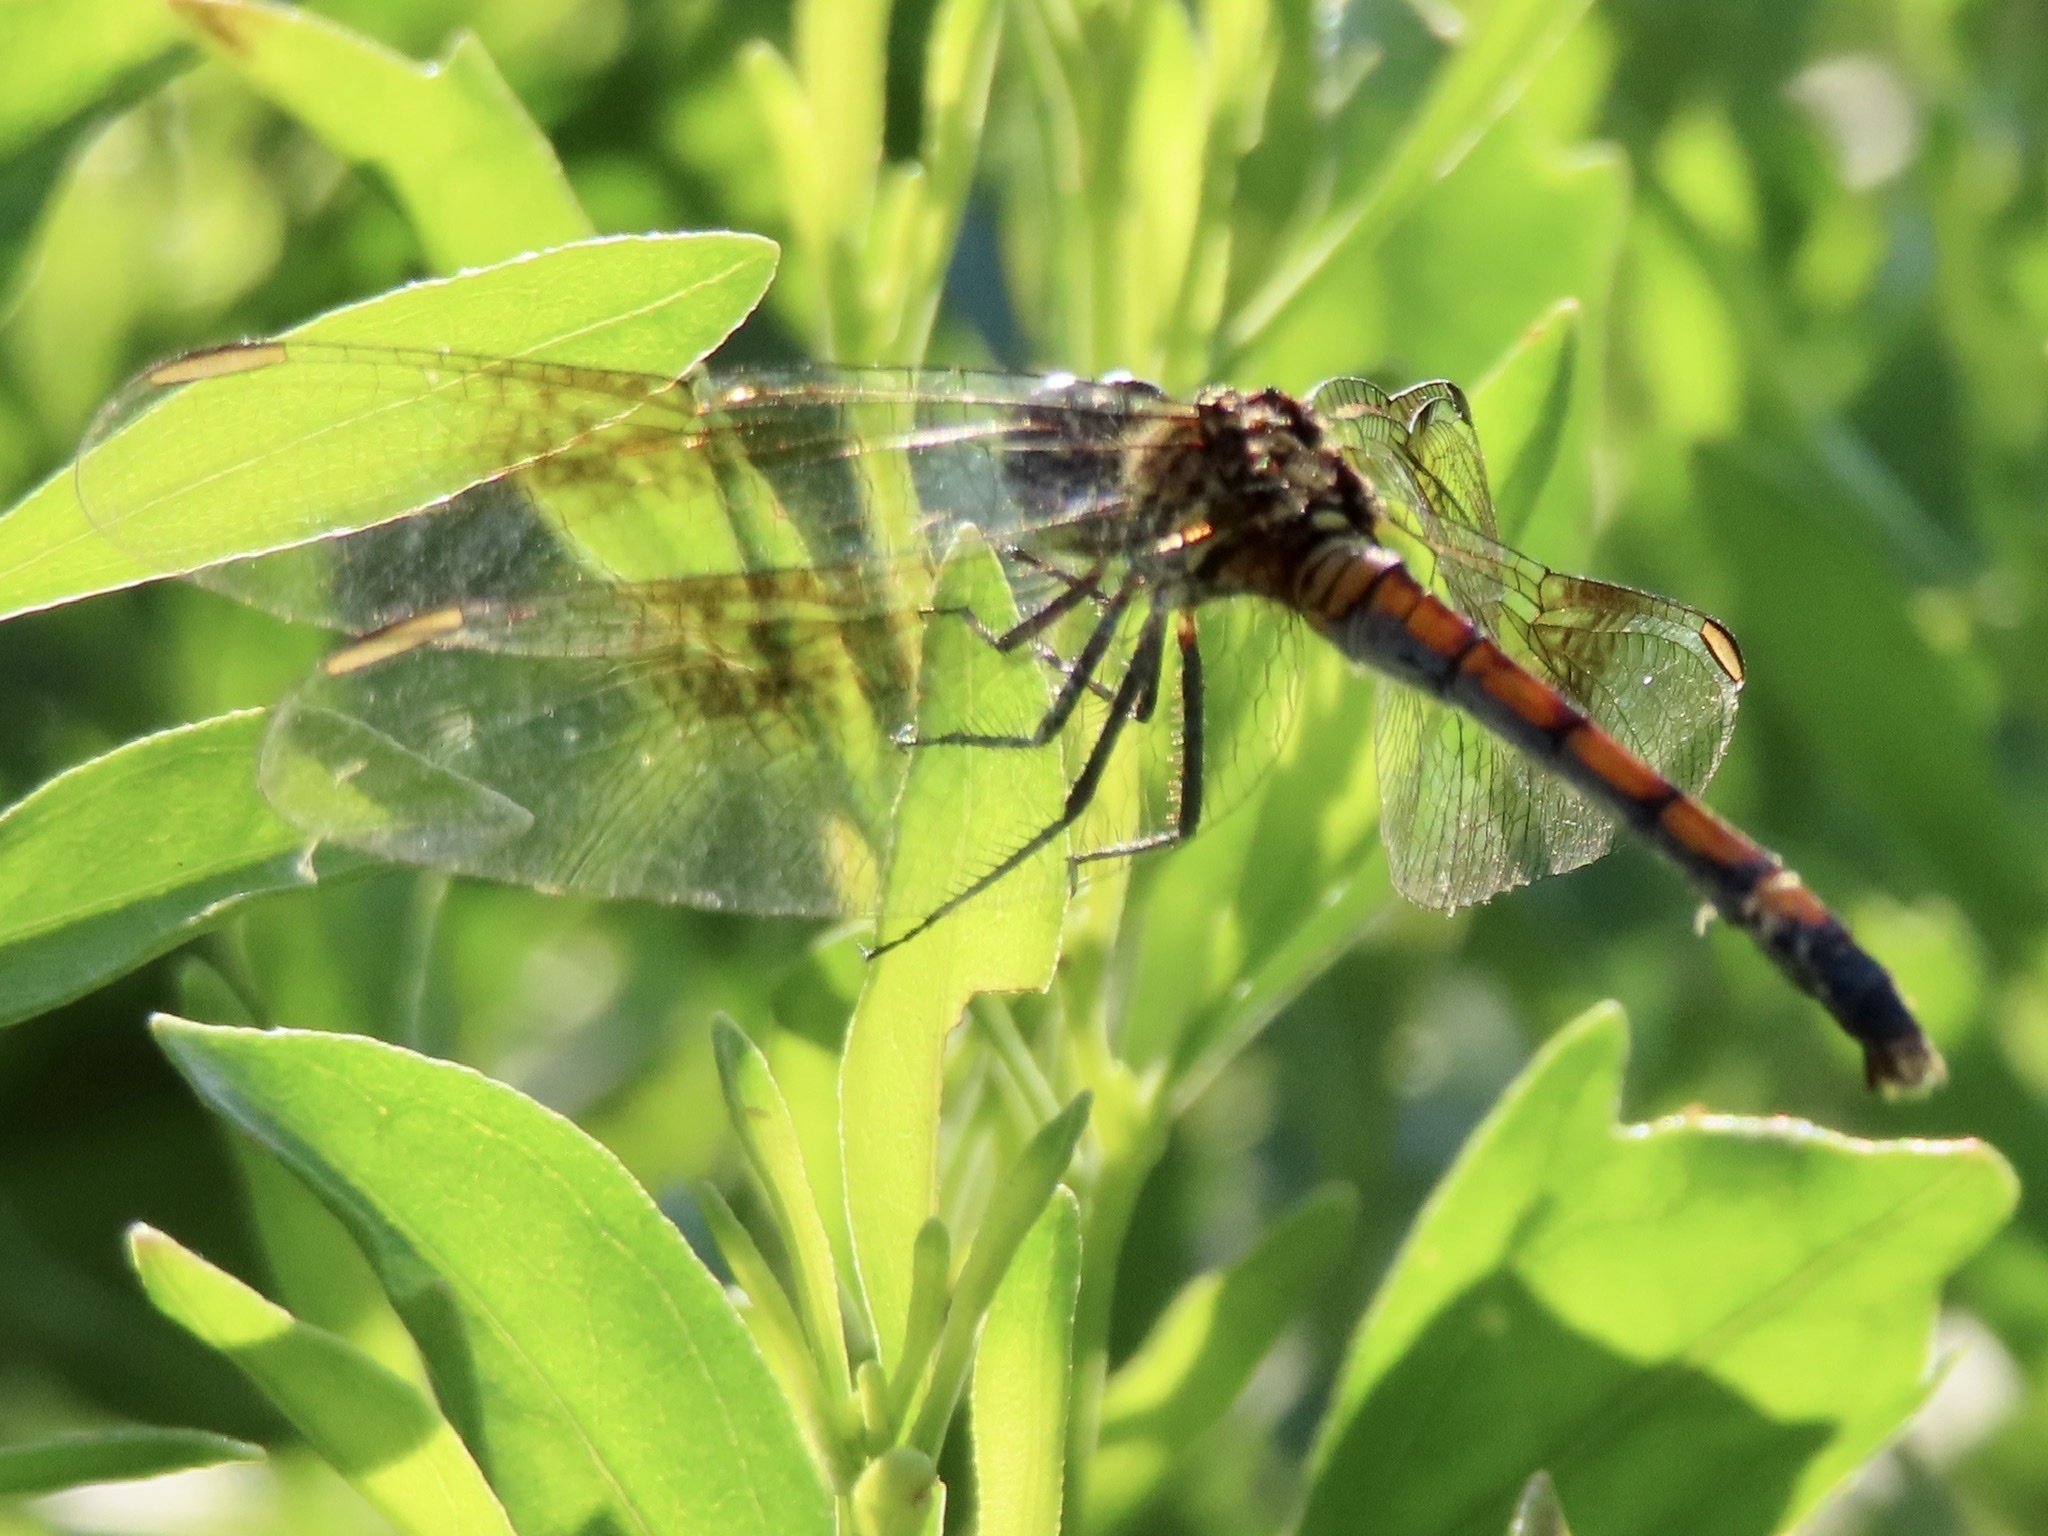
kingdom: Animalia
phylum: Arthropoda
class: Insecta
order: Odonata
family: Libellulidae
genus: Erythrodiplax
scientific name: Erythrodiplax berenice
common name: Seaside dragonlet
